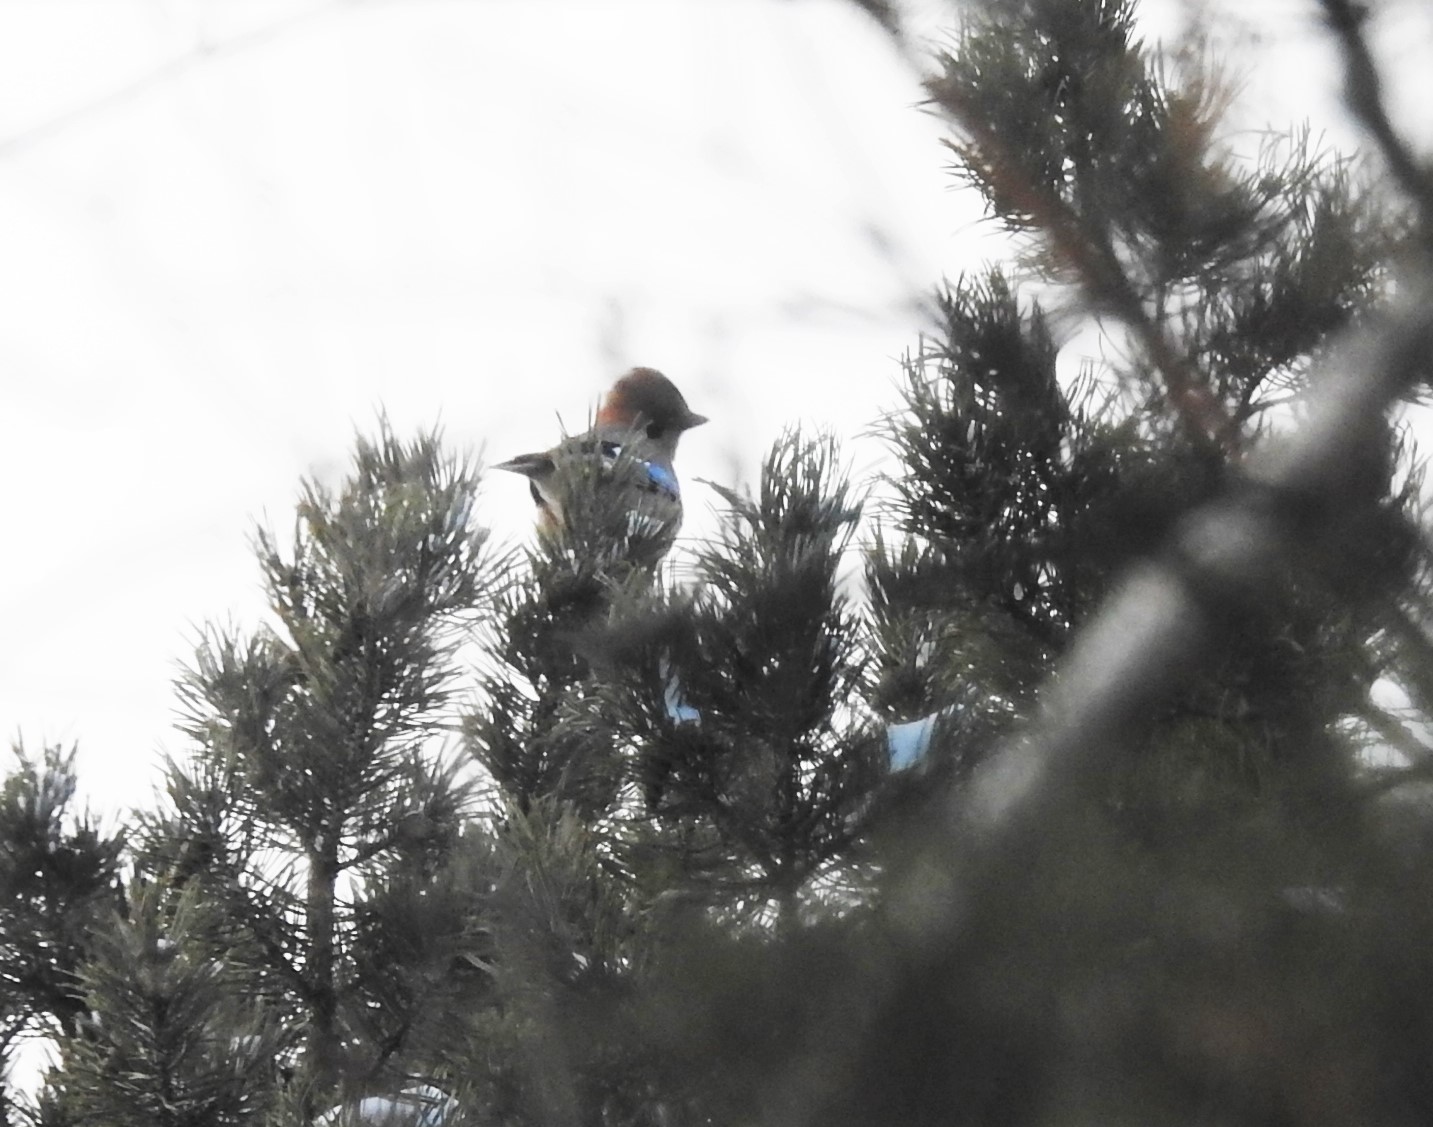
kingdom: Animalia
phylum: Chordata
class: Aves
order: Passeriformes
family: Corvidae
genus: Garrulus
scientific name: Garrulus glandarius
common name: Eurasian jay
